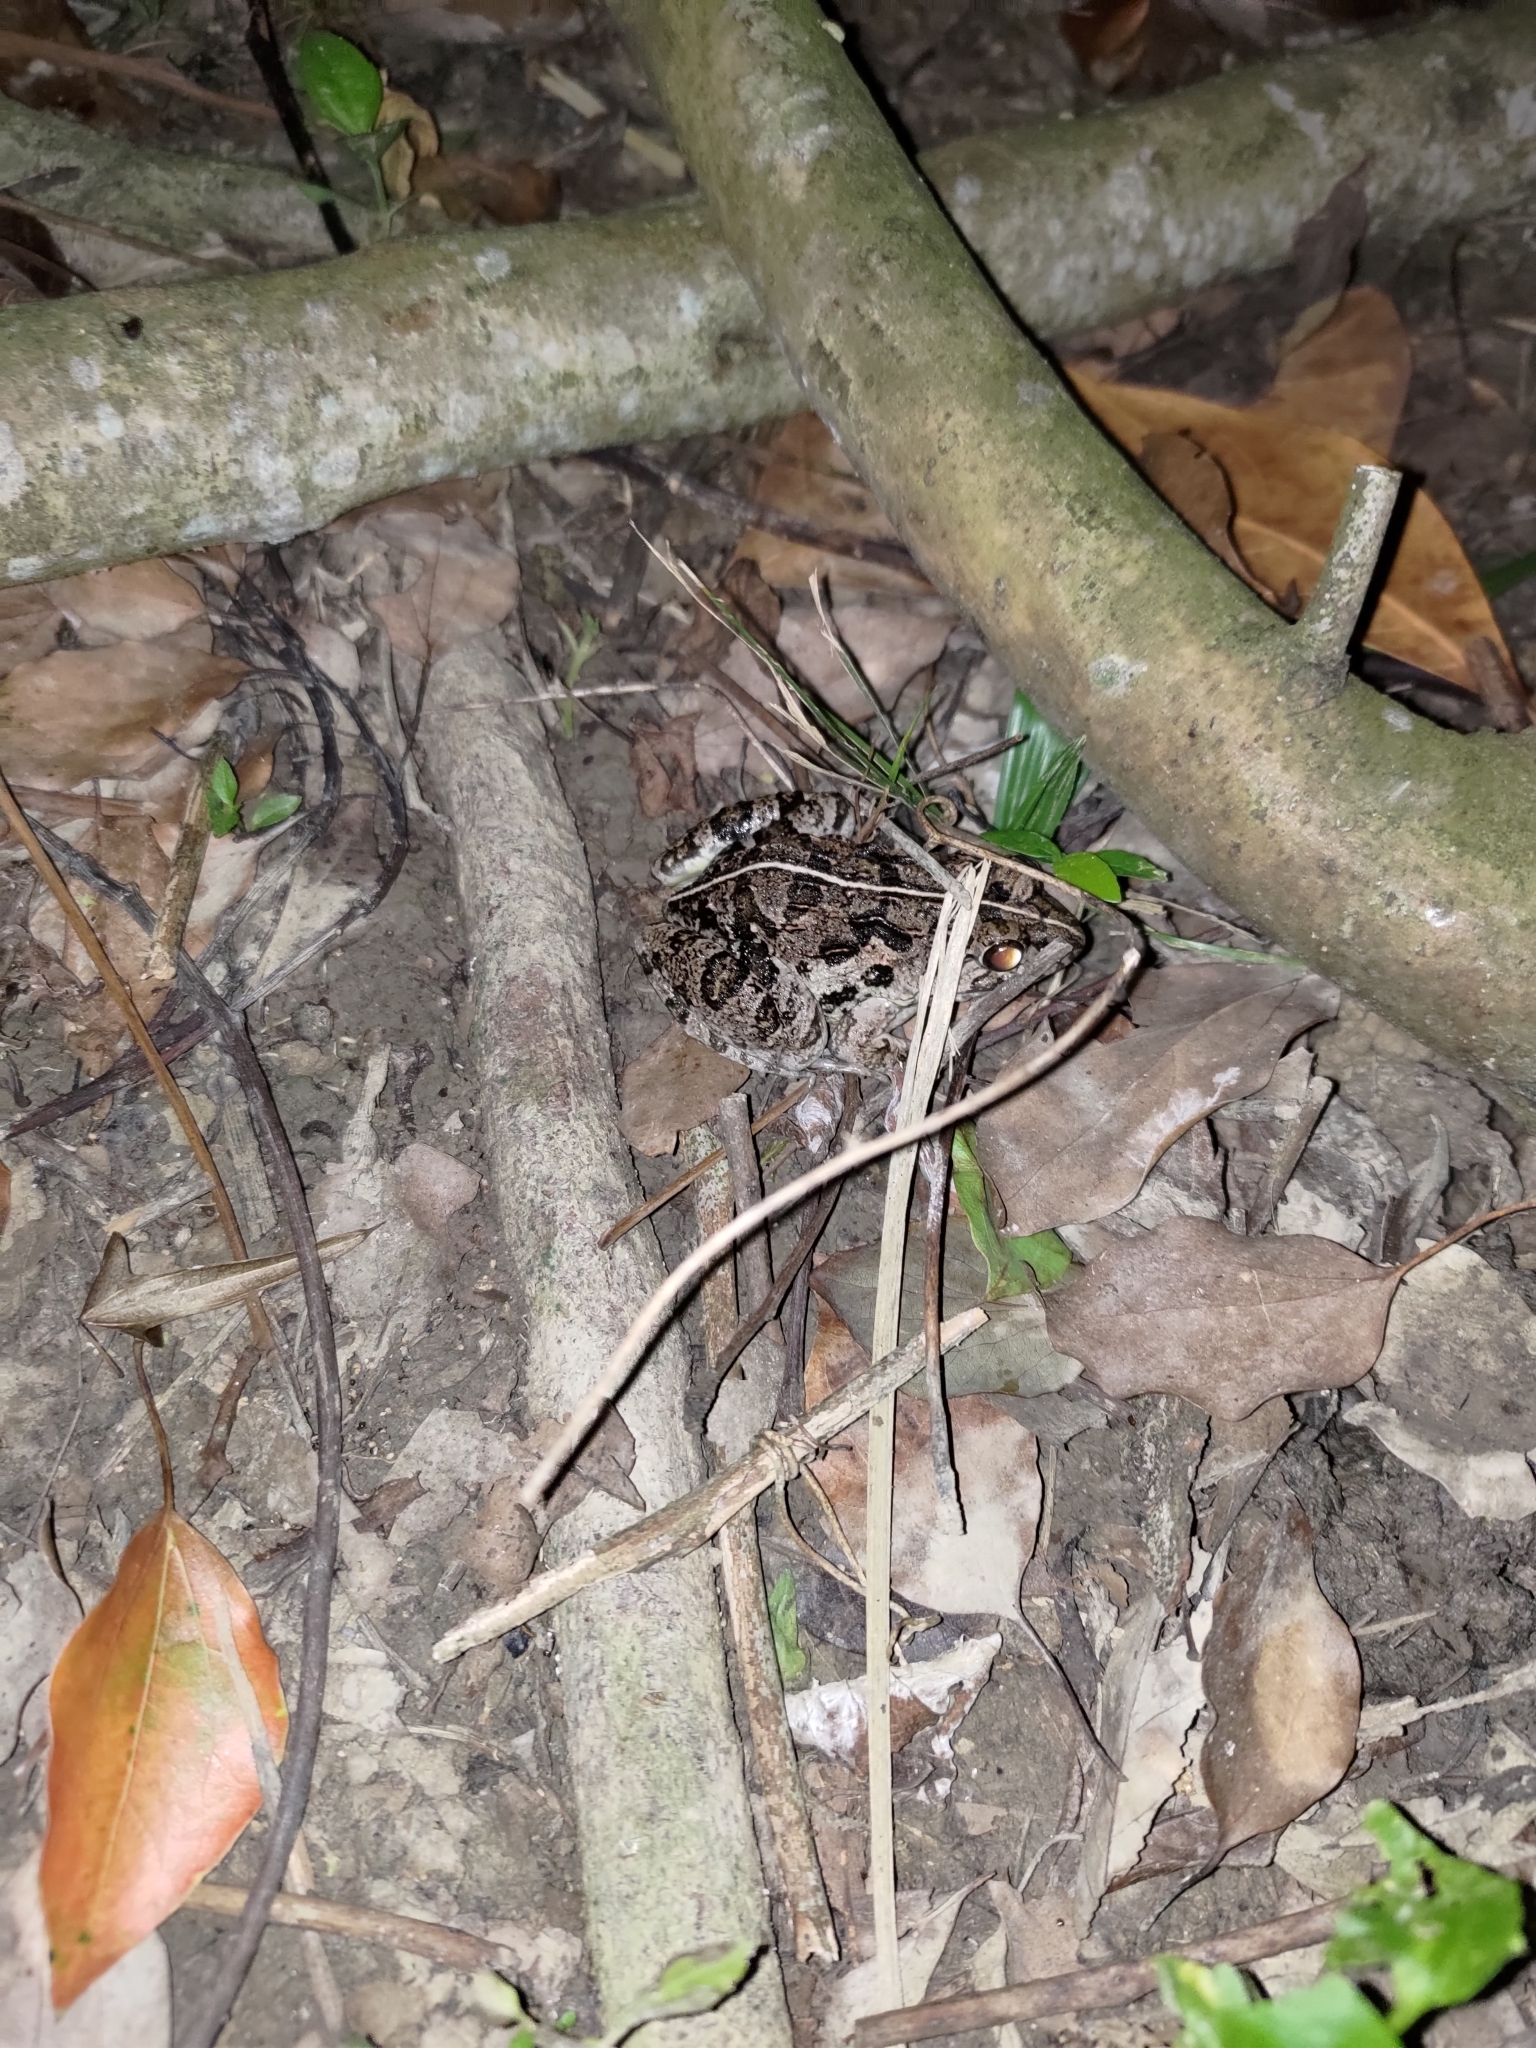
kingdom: Animalia
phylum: Chordata
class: Amphibia
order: Anura
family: Dicroglossidae
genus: Fejervarya
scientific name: Fejervarya limnocharis
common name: Asian grass frog/common pond frog/field frog/grass frog/indian rice frog
